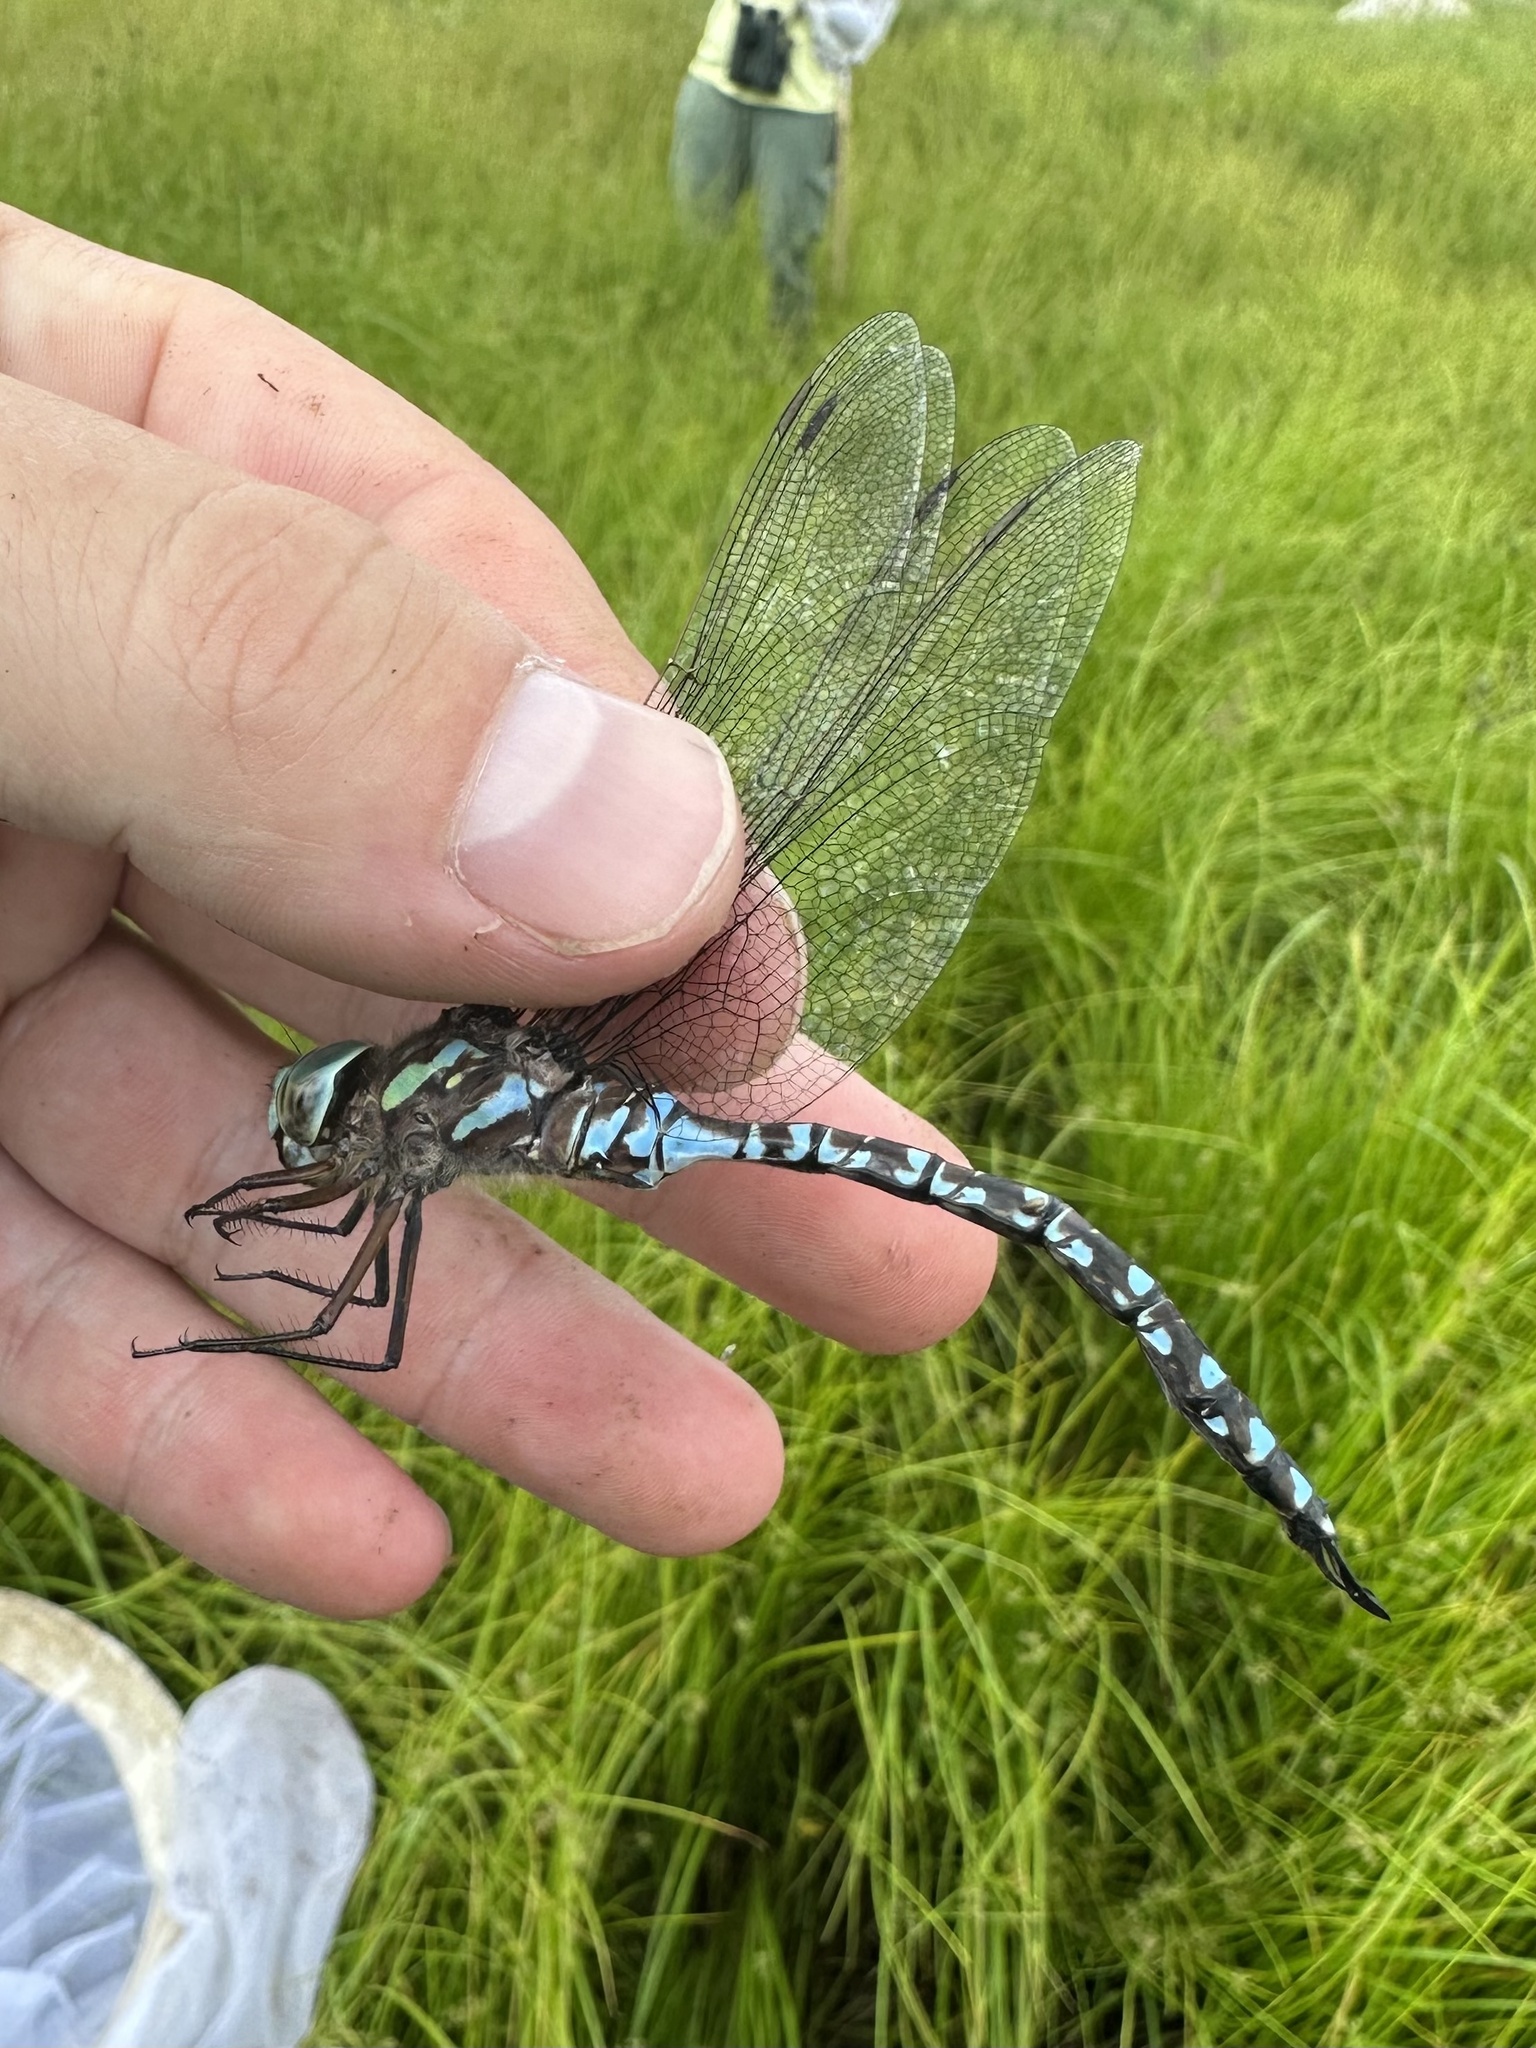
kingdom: Animalia
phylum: Arthropoda
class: Insecta
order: Odonata
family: Aeshnidae
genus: Aeshna
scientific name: Aeshna canadensis
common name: Canada darner
